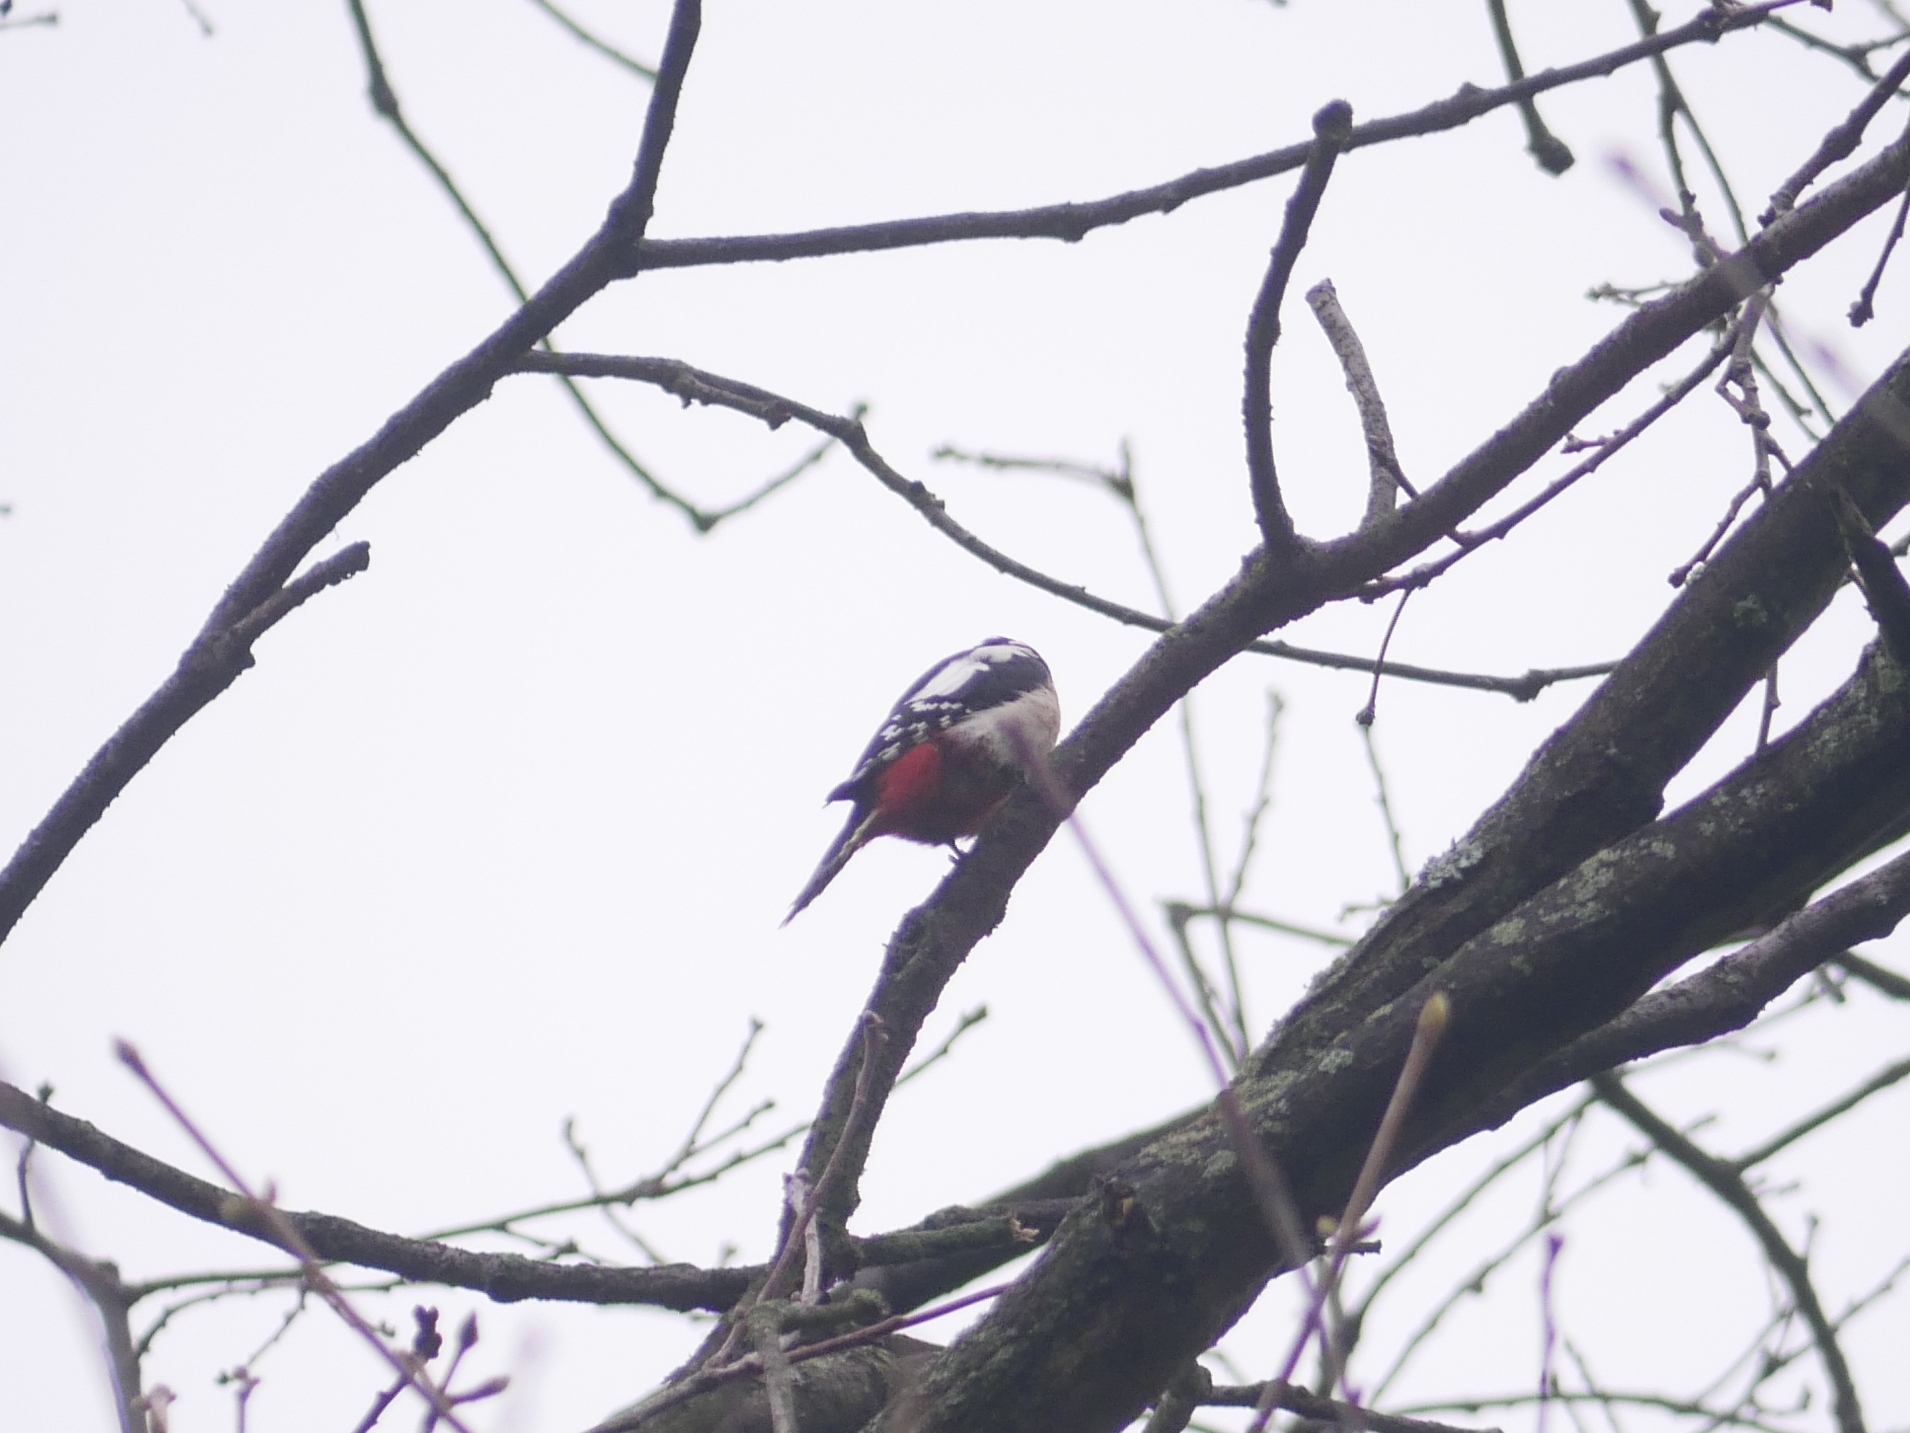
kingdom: Animalia
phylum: Chordata
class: Aves
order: Piciformes
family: Picidae
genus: Dendrocopos
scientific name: Dendrocopos major
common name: Great spotted woodpecker
